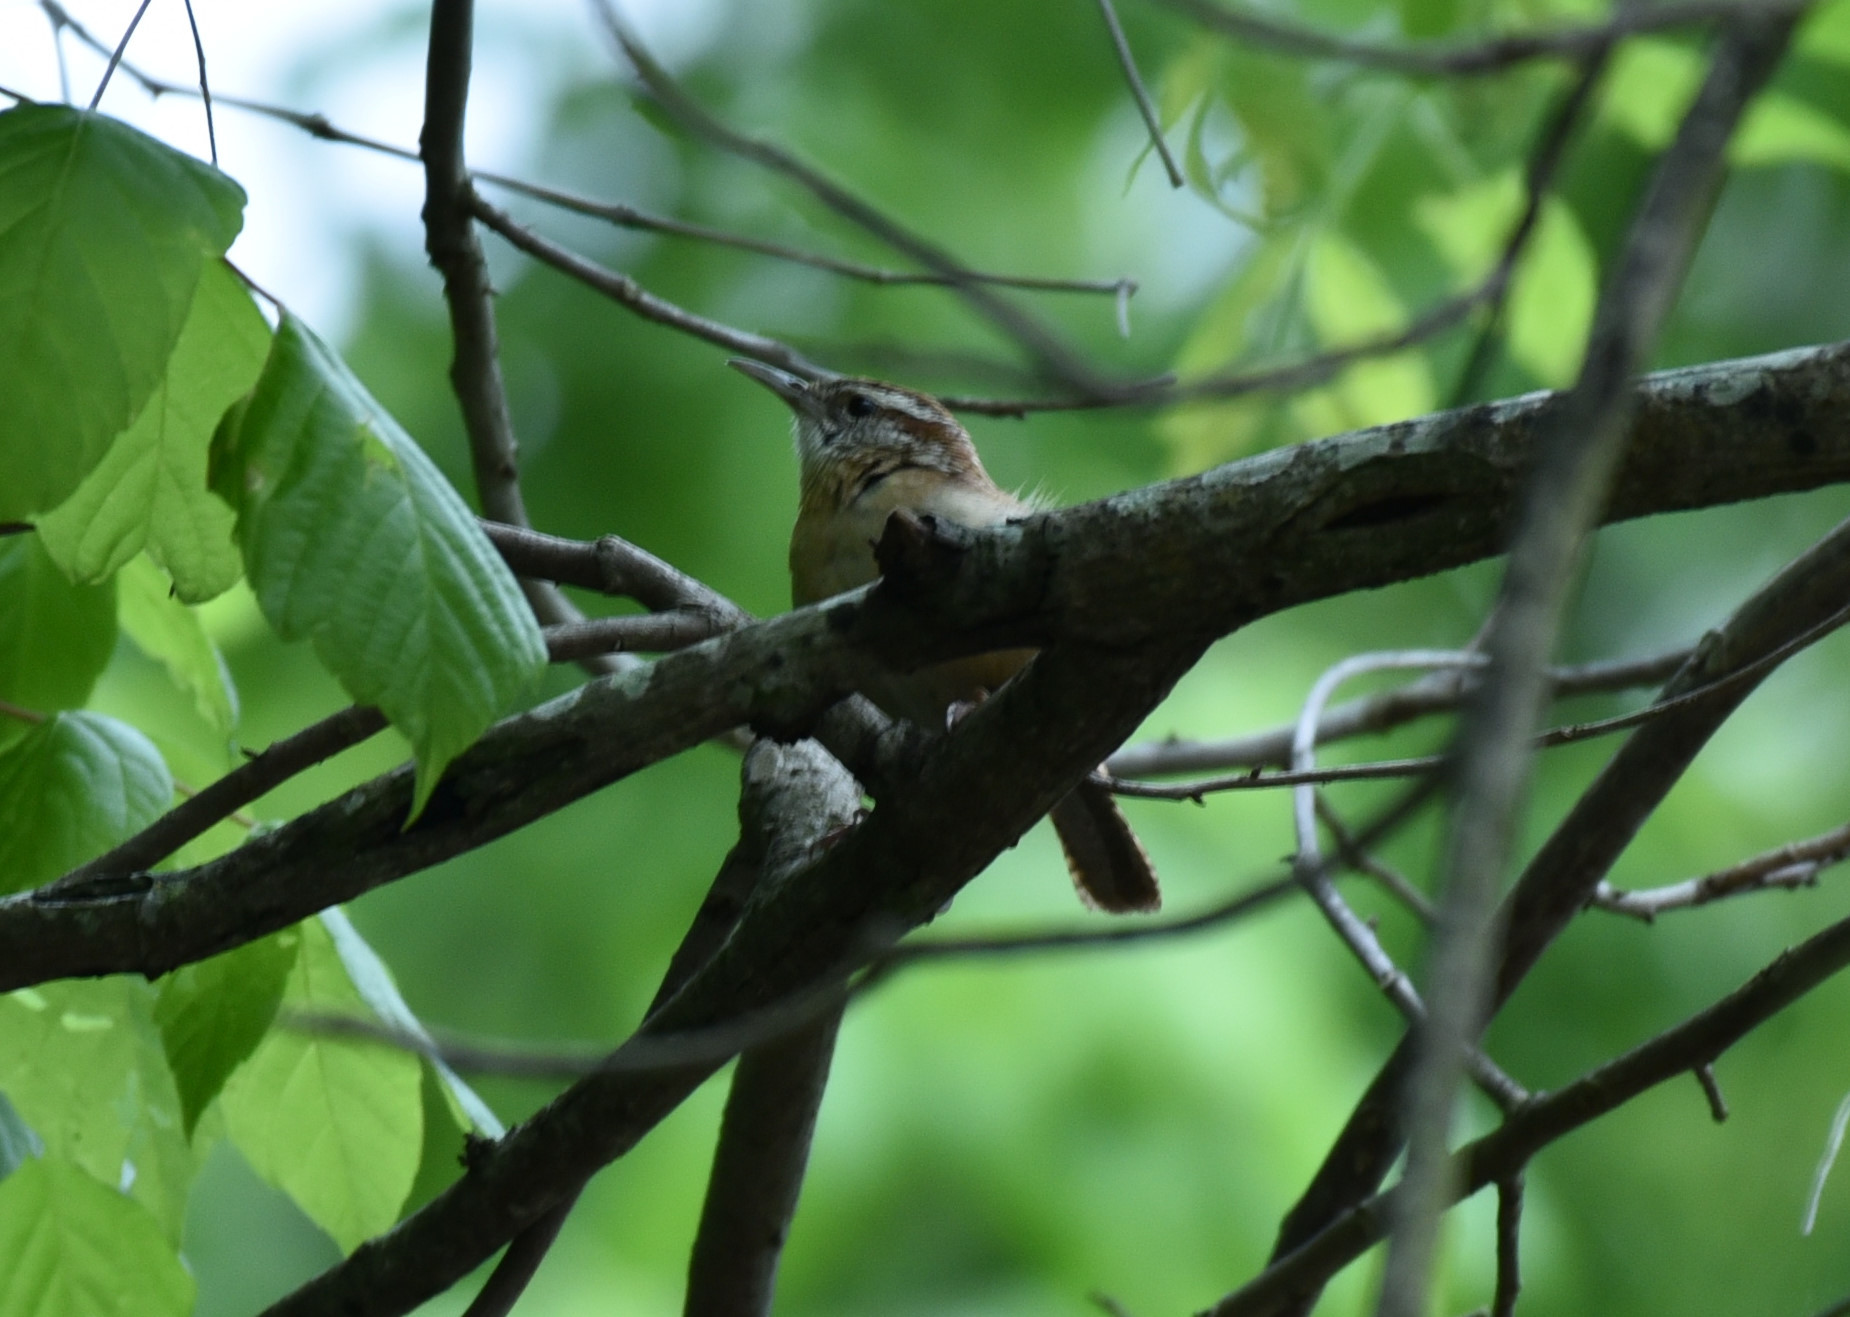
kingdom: Animalia
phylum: Chordata
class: Aves
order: Passeriformes
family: Troglodytidae
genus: Thryothorus
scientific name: Thryothorus ludovicianus
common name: Carolina wren
